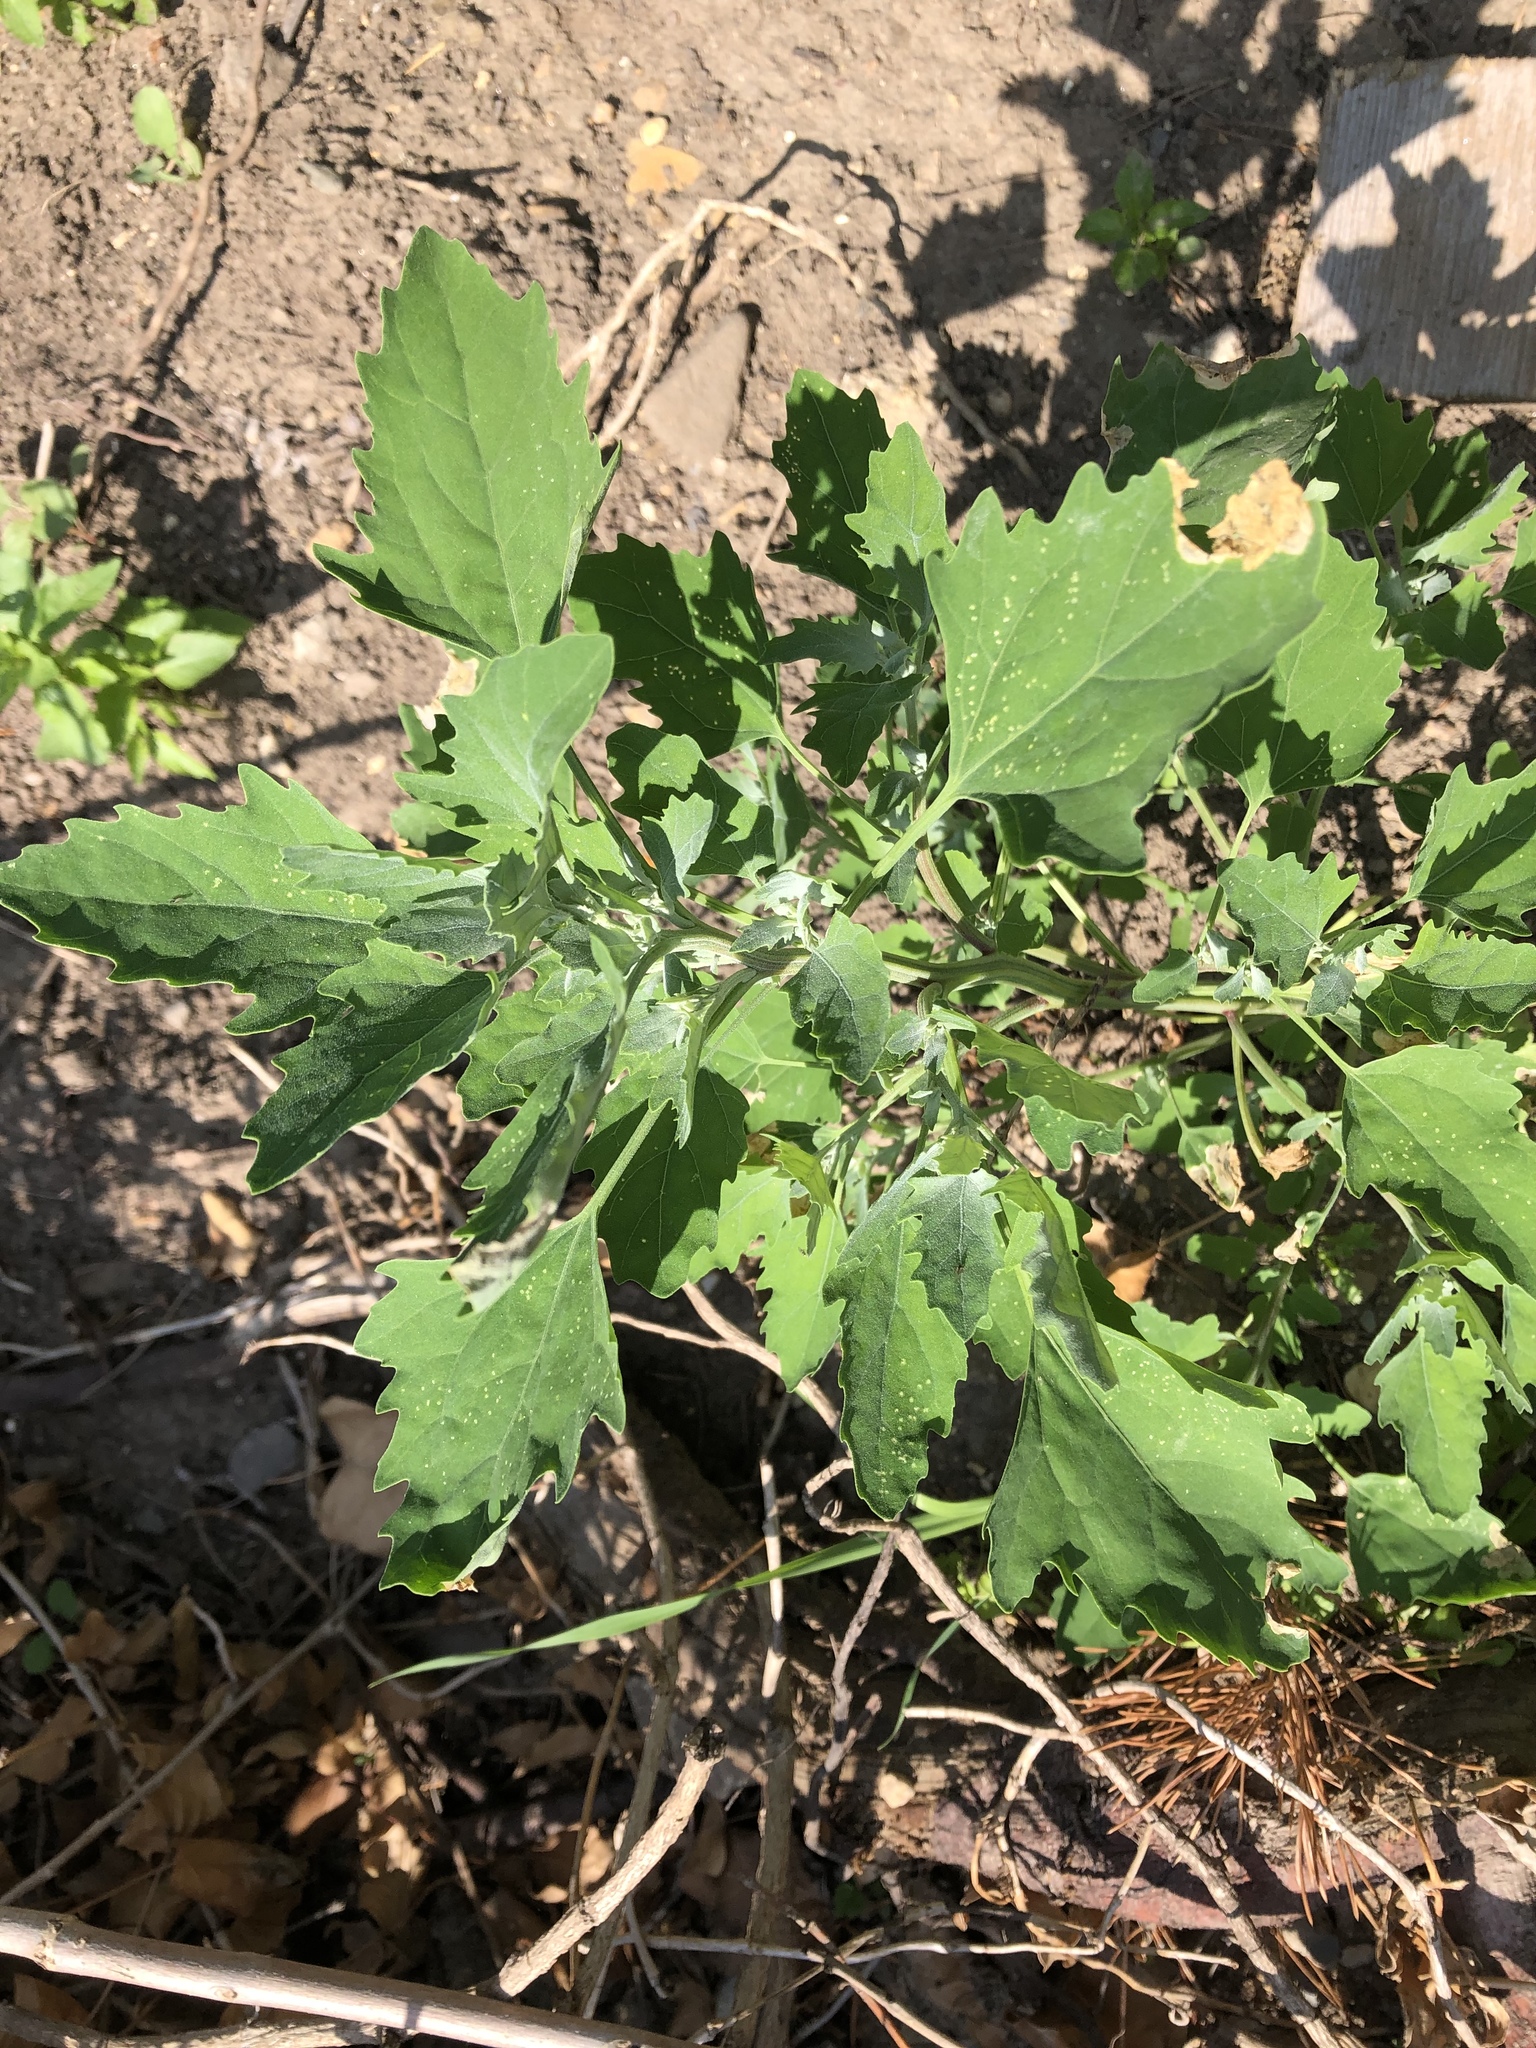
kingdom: Plantae
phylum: Tracheophyta
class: Magnoliopsida
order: Caryophyllales
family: Amaranthaceae
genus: Chenopodium
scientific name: Chenopodium album
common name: Fat-hen
